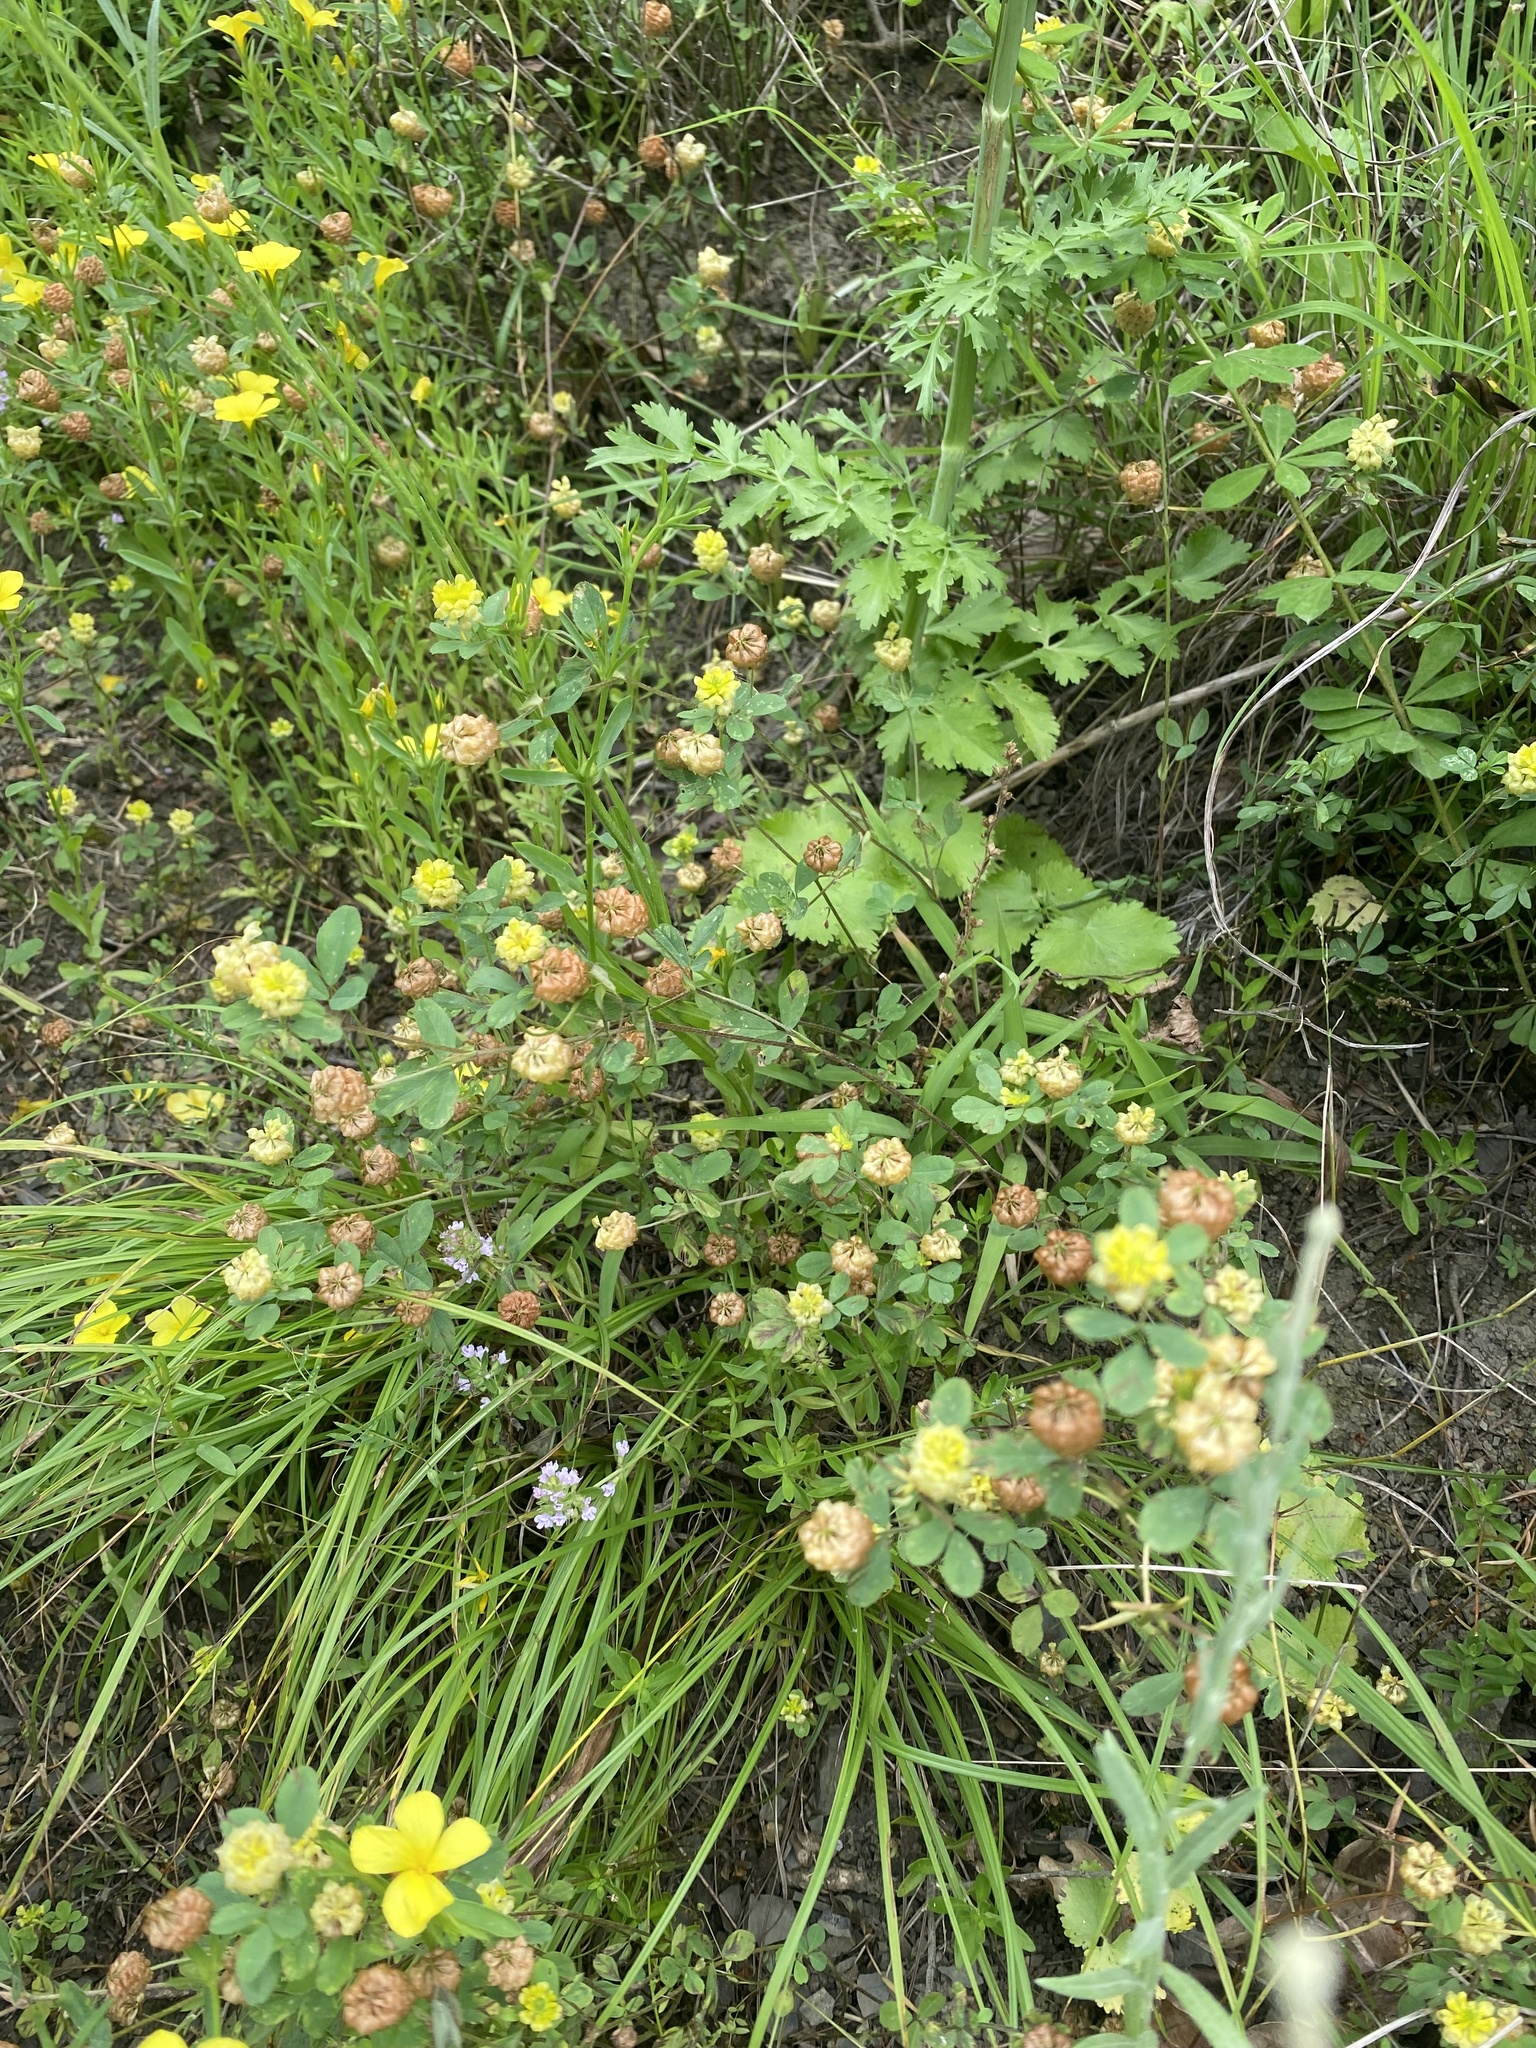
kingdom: Plantae
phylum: Tracheophyta
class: Magnoliopsida
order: Fabales
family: Fabaceae
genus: Trifolium
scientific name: Trifolium campestre
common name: Field clover
